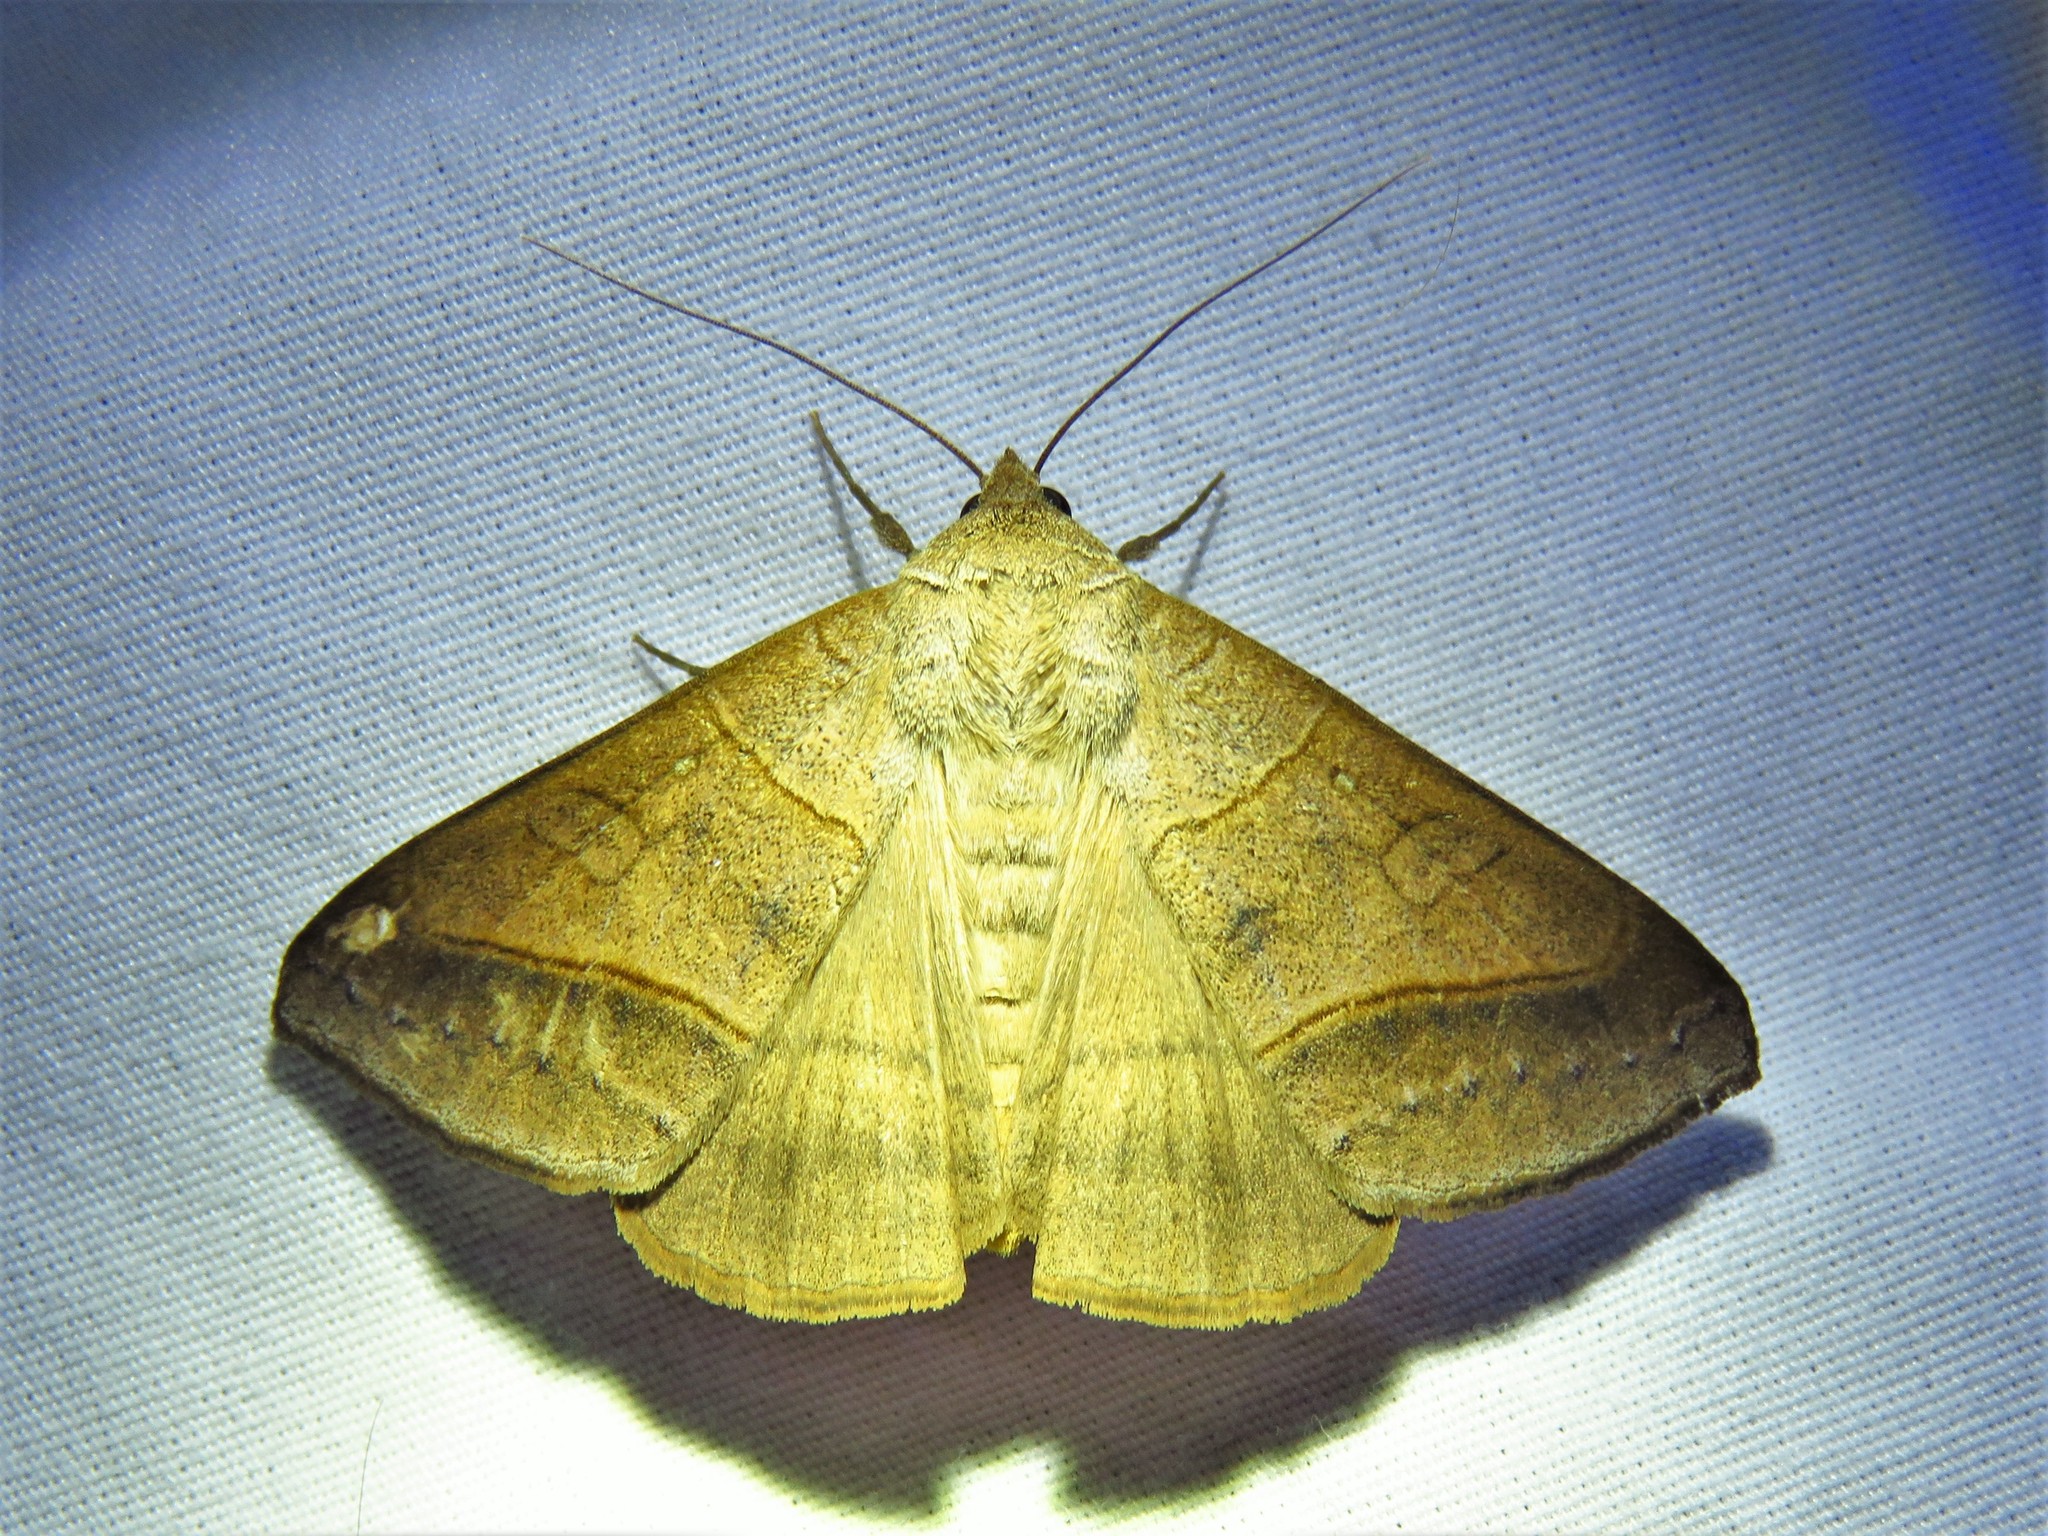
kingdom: Animalia
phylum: Arthropoda
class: Insecta
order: Lepidoptera
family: Erebidae
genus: Mocis
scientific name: Mocis texana
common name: Texas mocis moth
